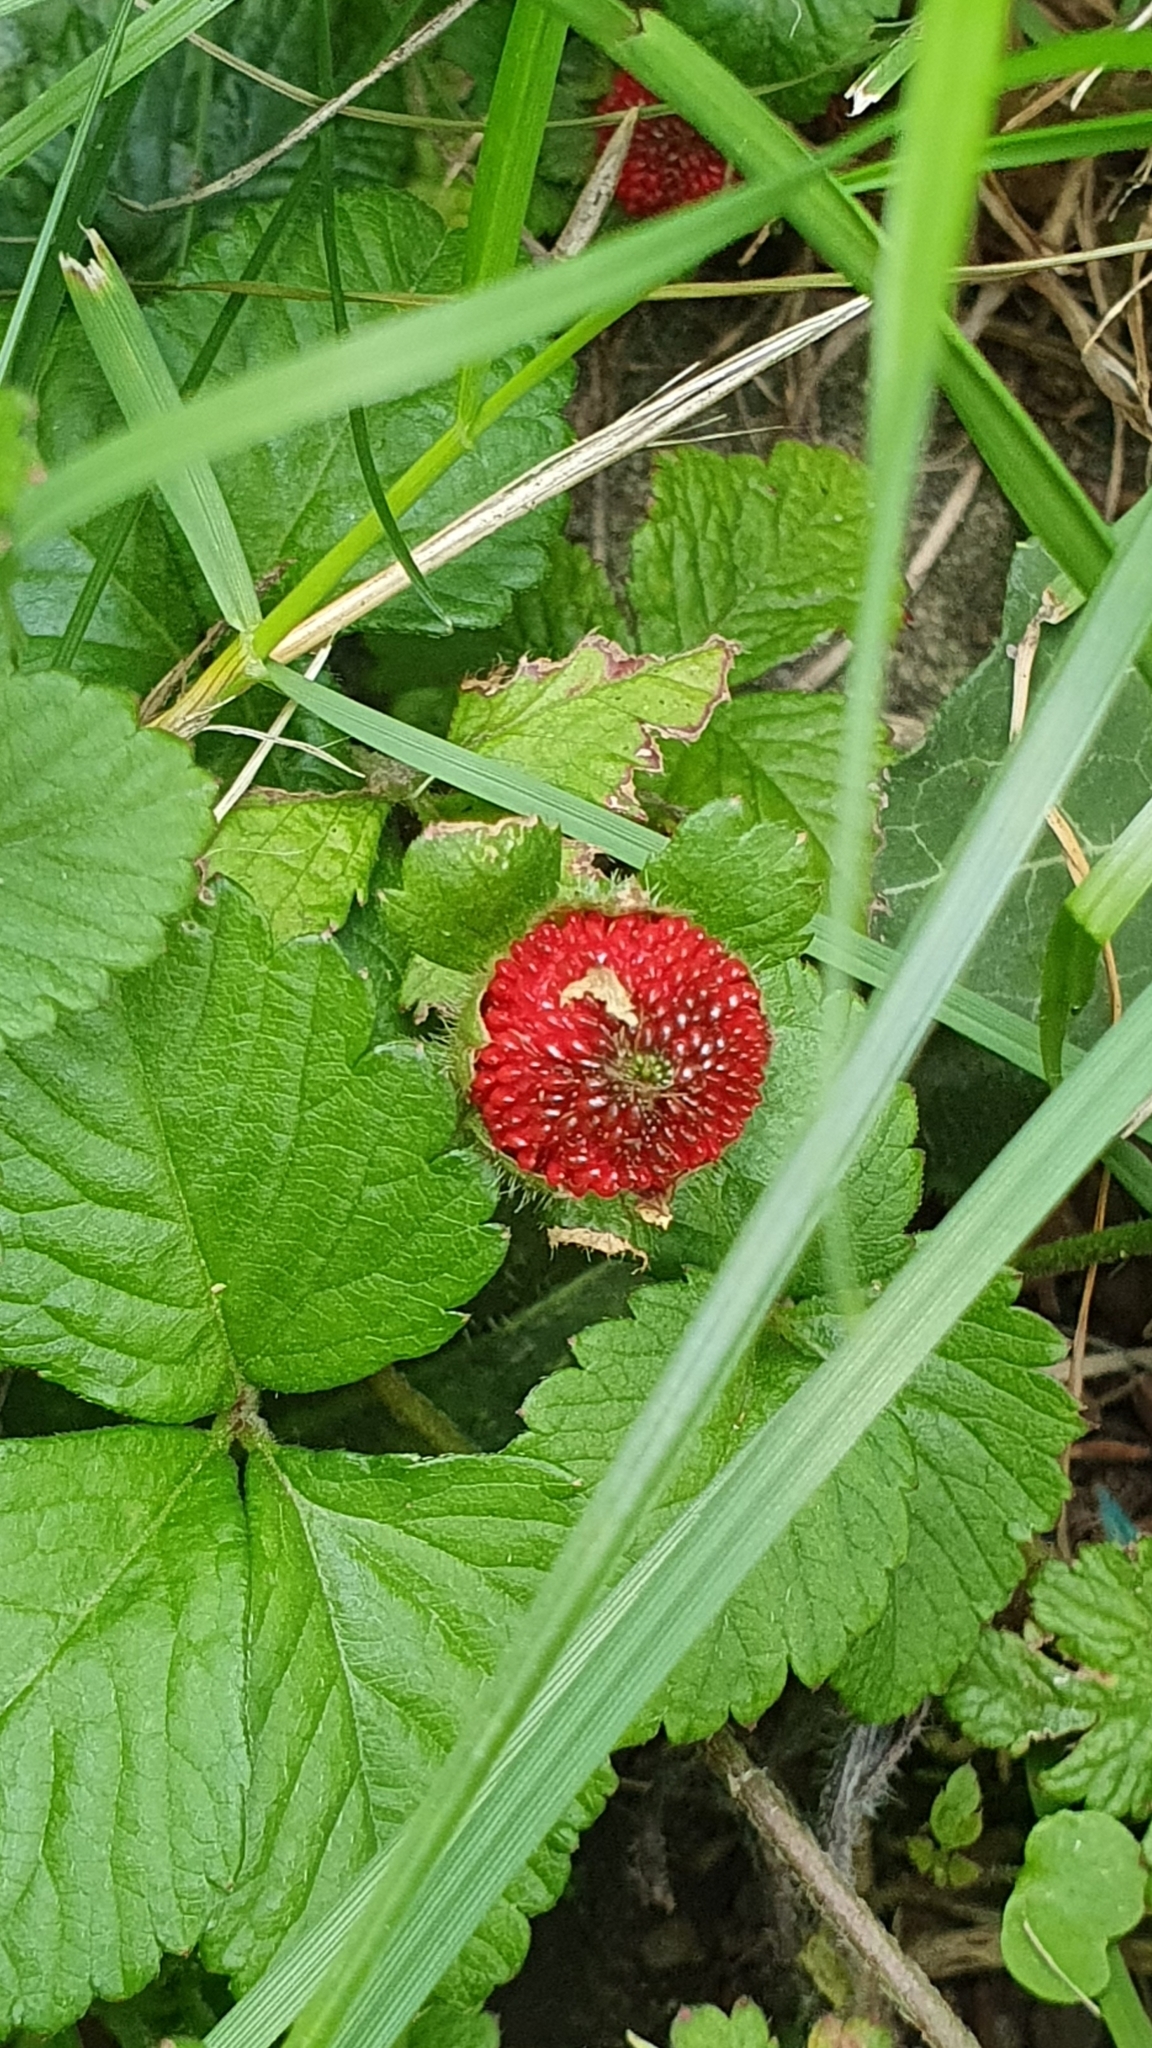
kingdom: Plantae
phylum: Tracheophyta
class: Magnoliopsida
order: Rosales
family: Rosaceae
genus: Potentilla
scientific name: Potentilla indica
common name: Yellow-flowered strawberry
